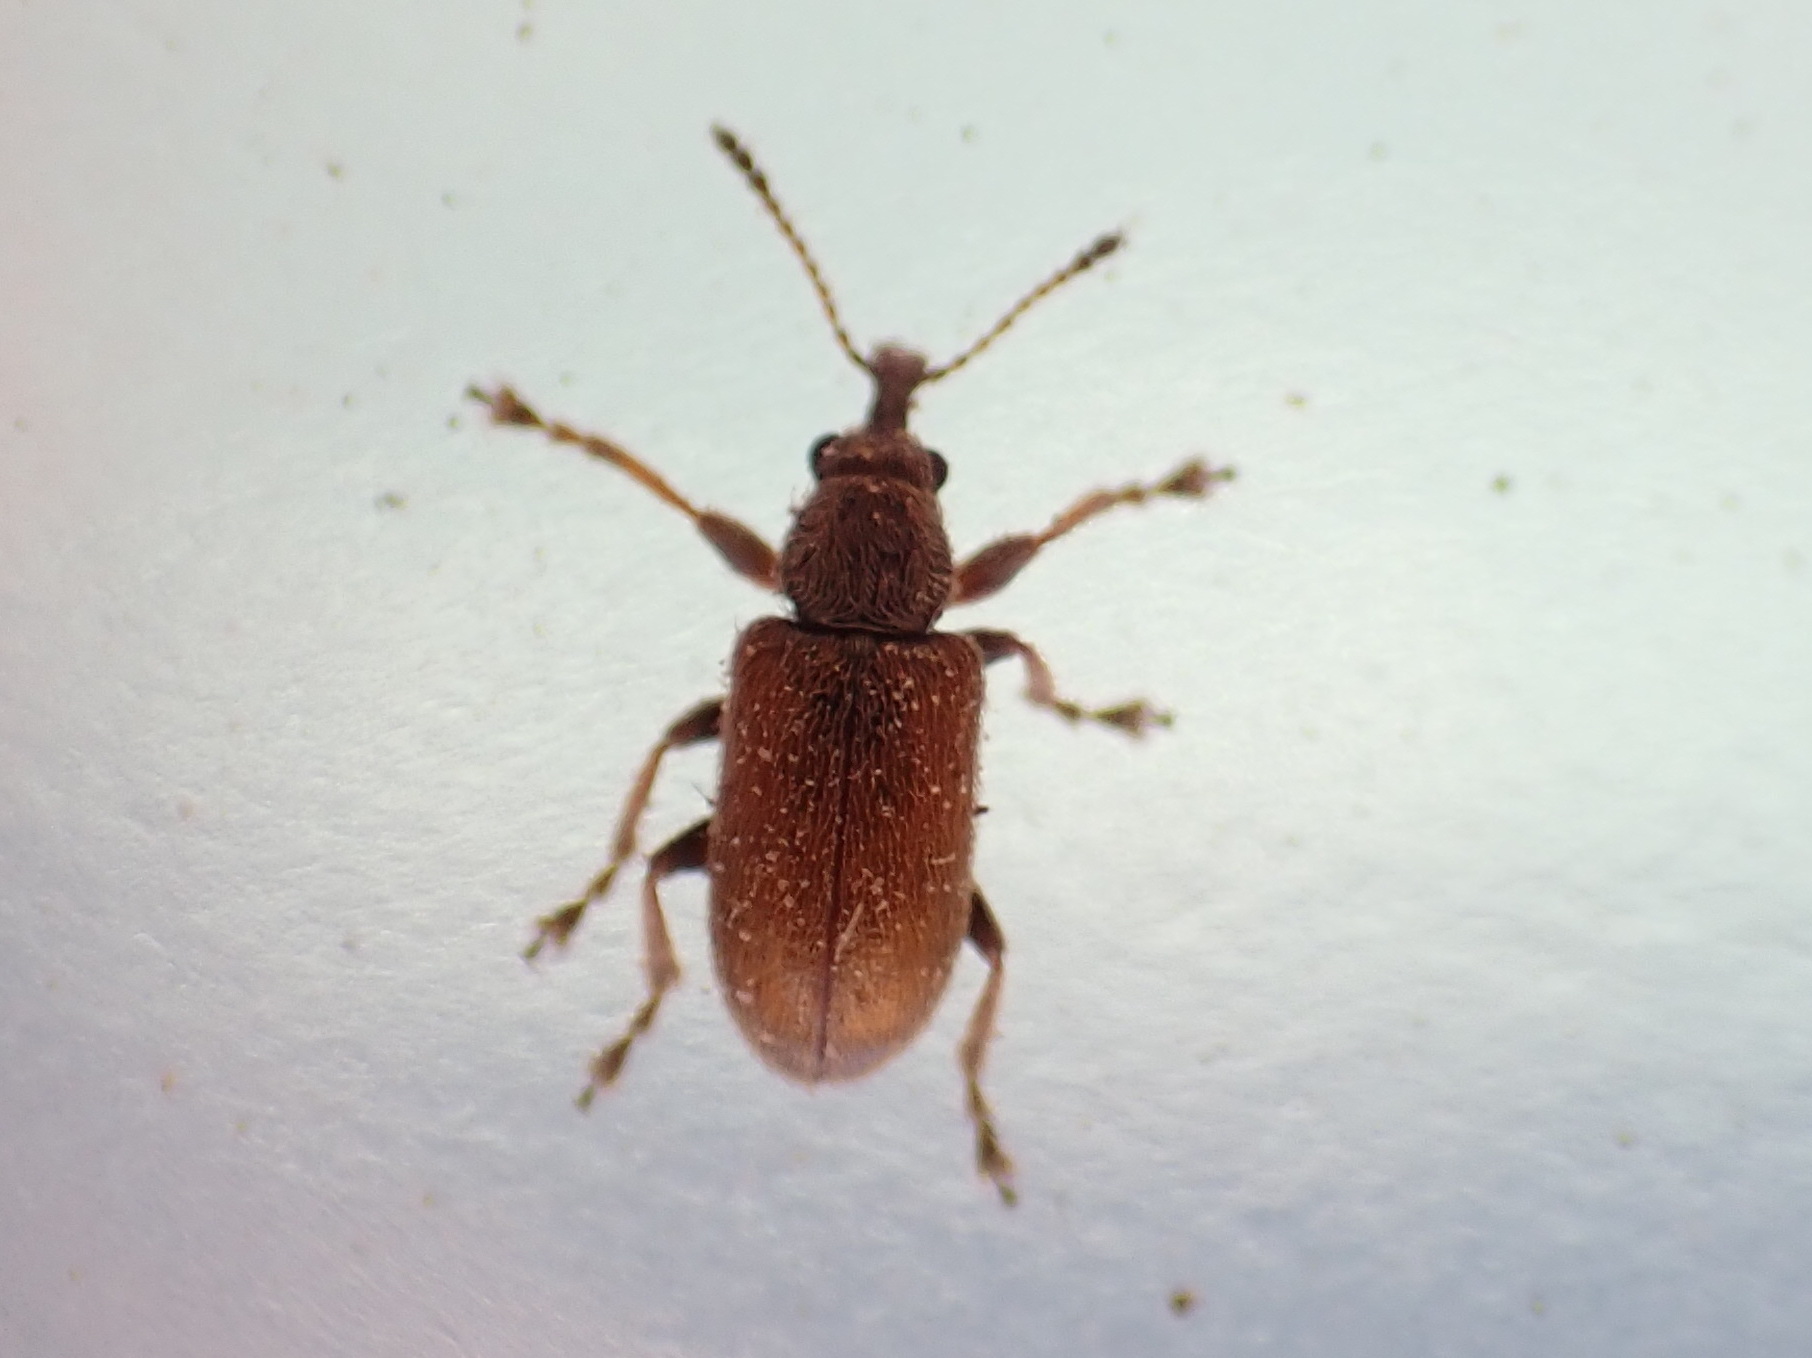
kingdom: Animalia
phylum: Arthropoda
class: Insecta
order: Coleoptera
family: Nemonychidae
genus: Cimberis
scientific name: Cimberis pilosa
